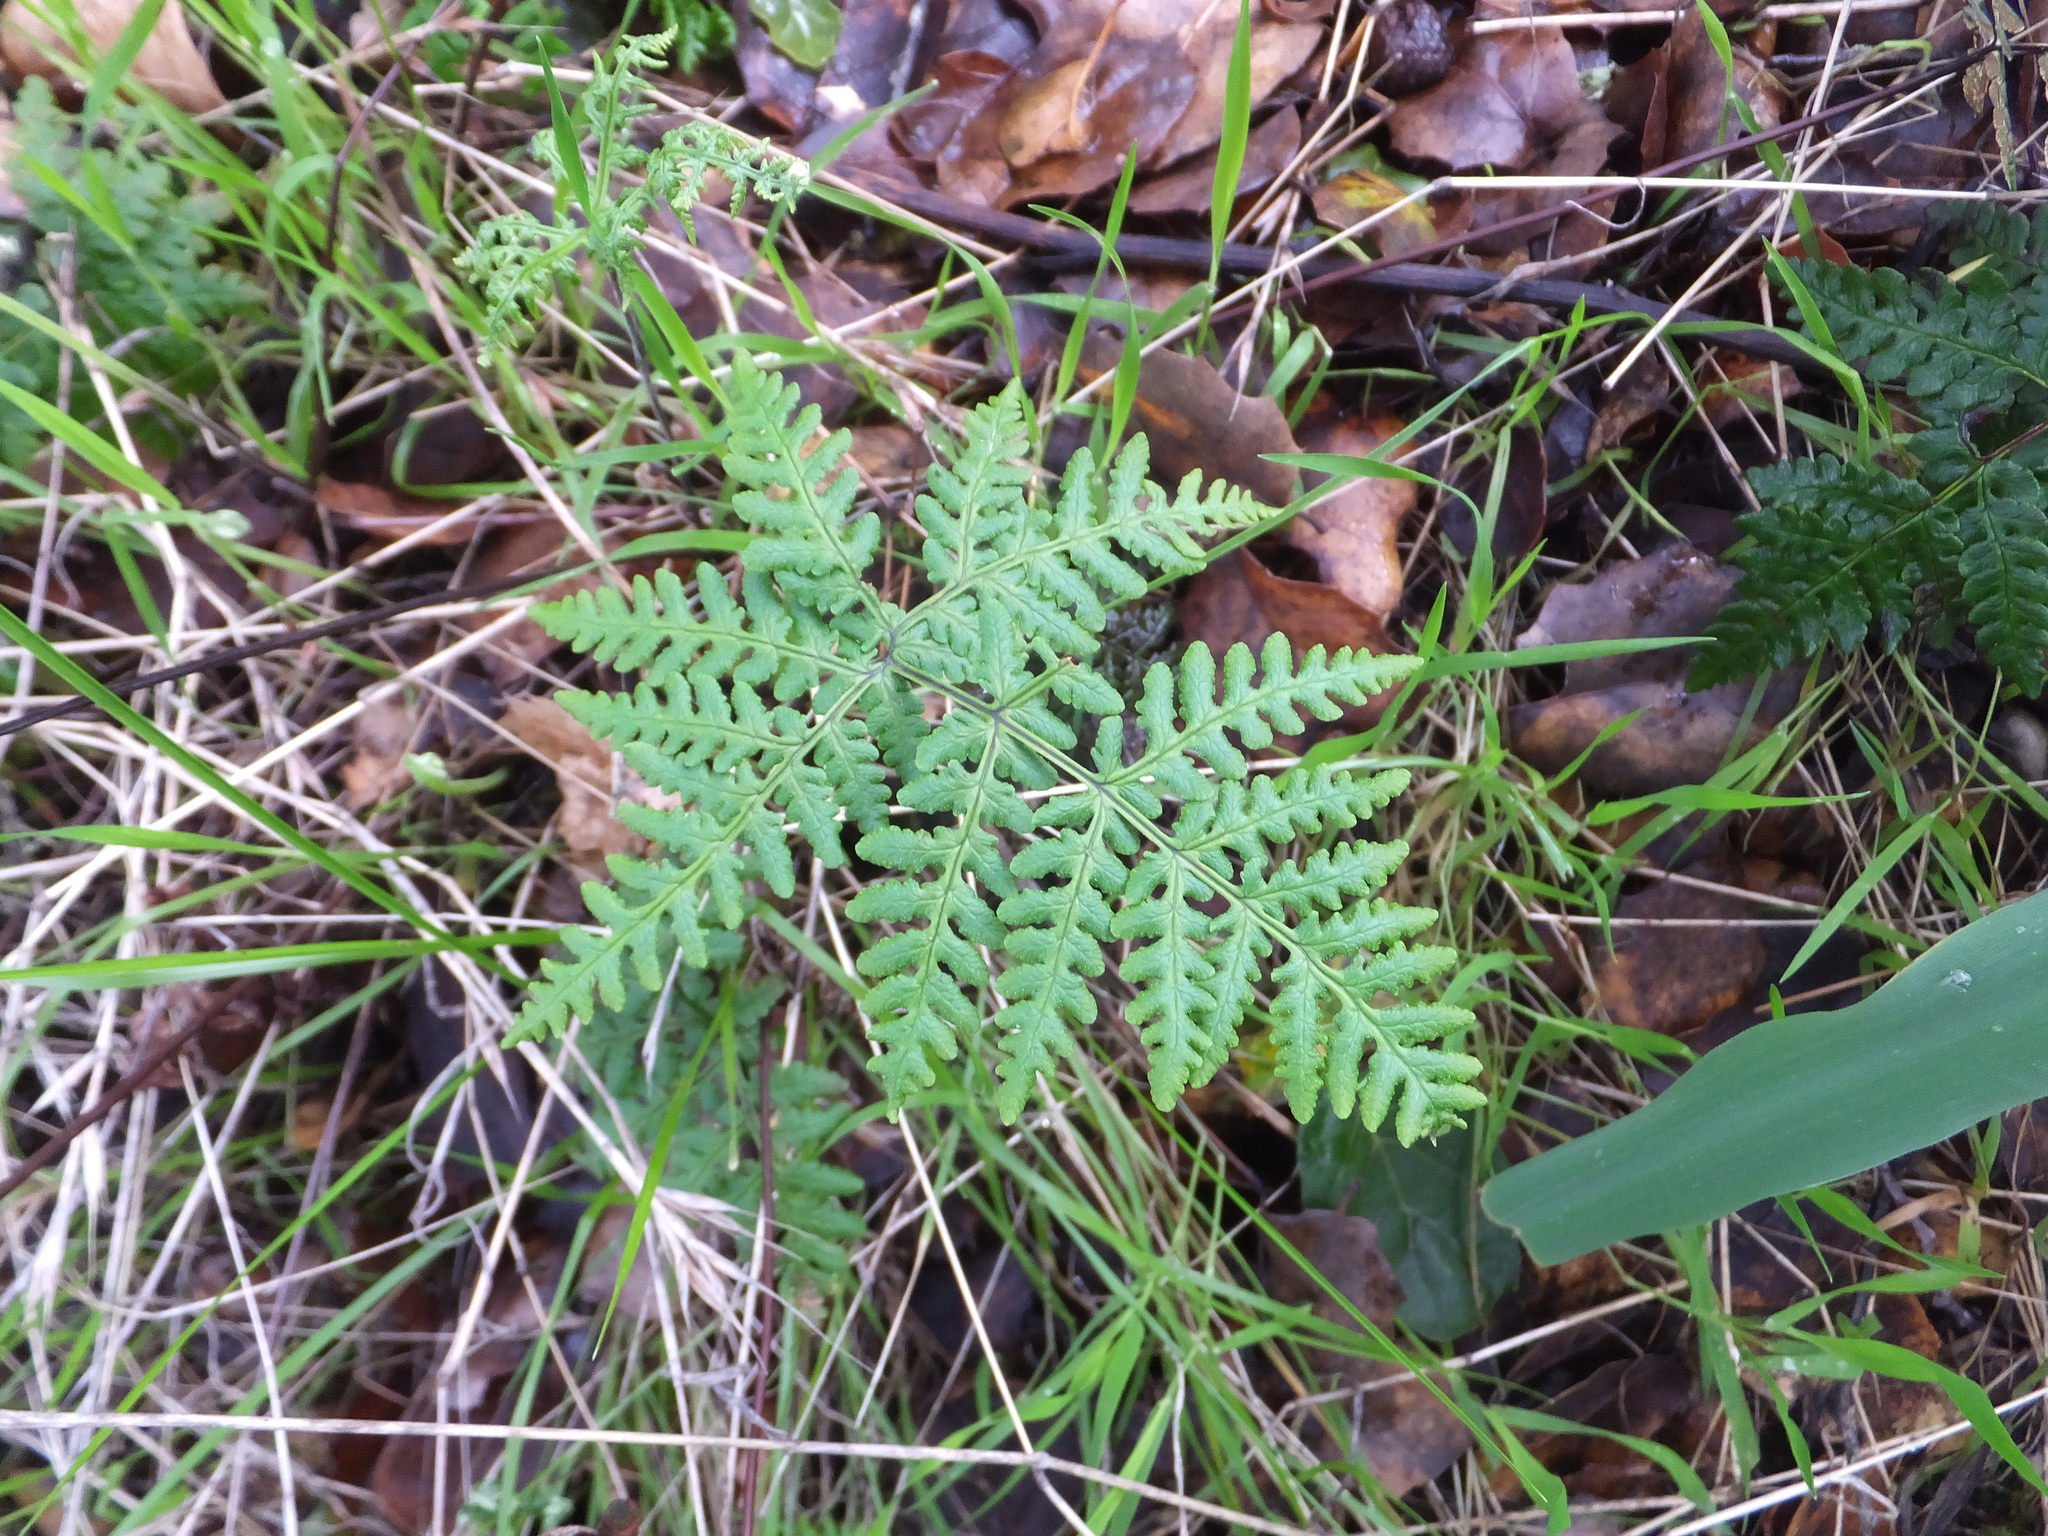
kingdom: Plantae
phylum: Tracheophyta
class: Polypodiopsida
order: Polypodiales
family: Pteridaceae
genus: Pentagramma
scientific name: Pentagramma triangularis
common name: Gold fern
